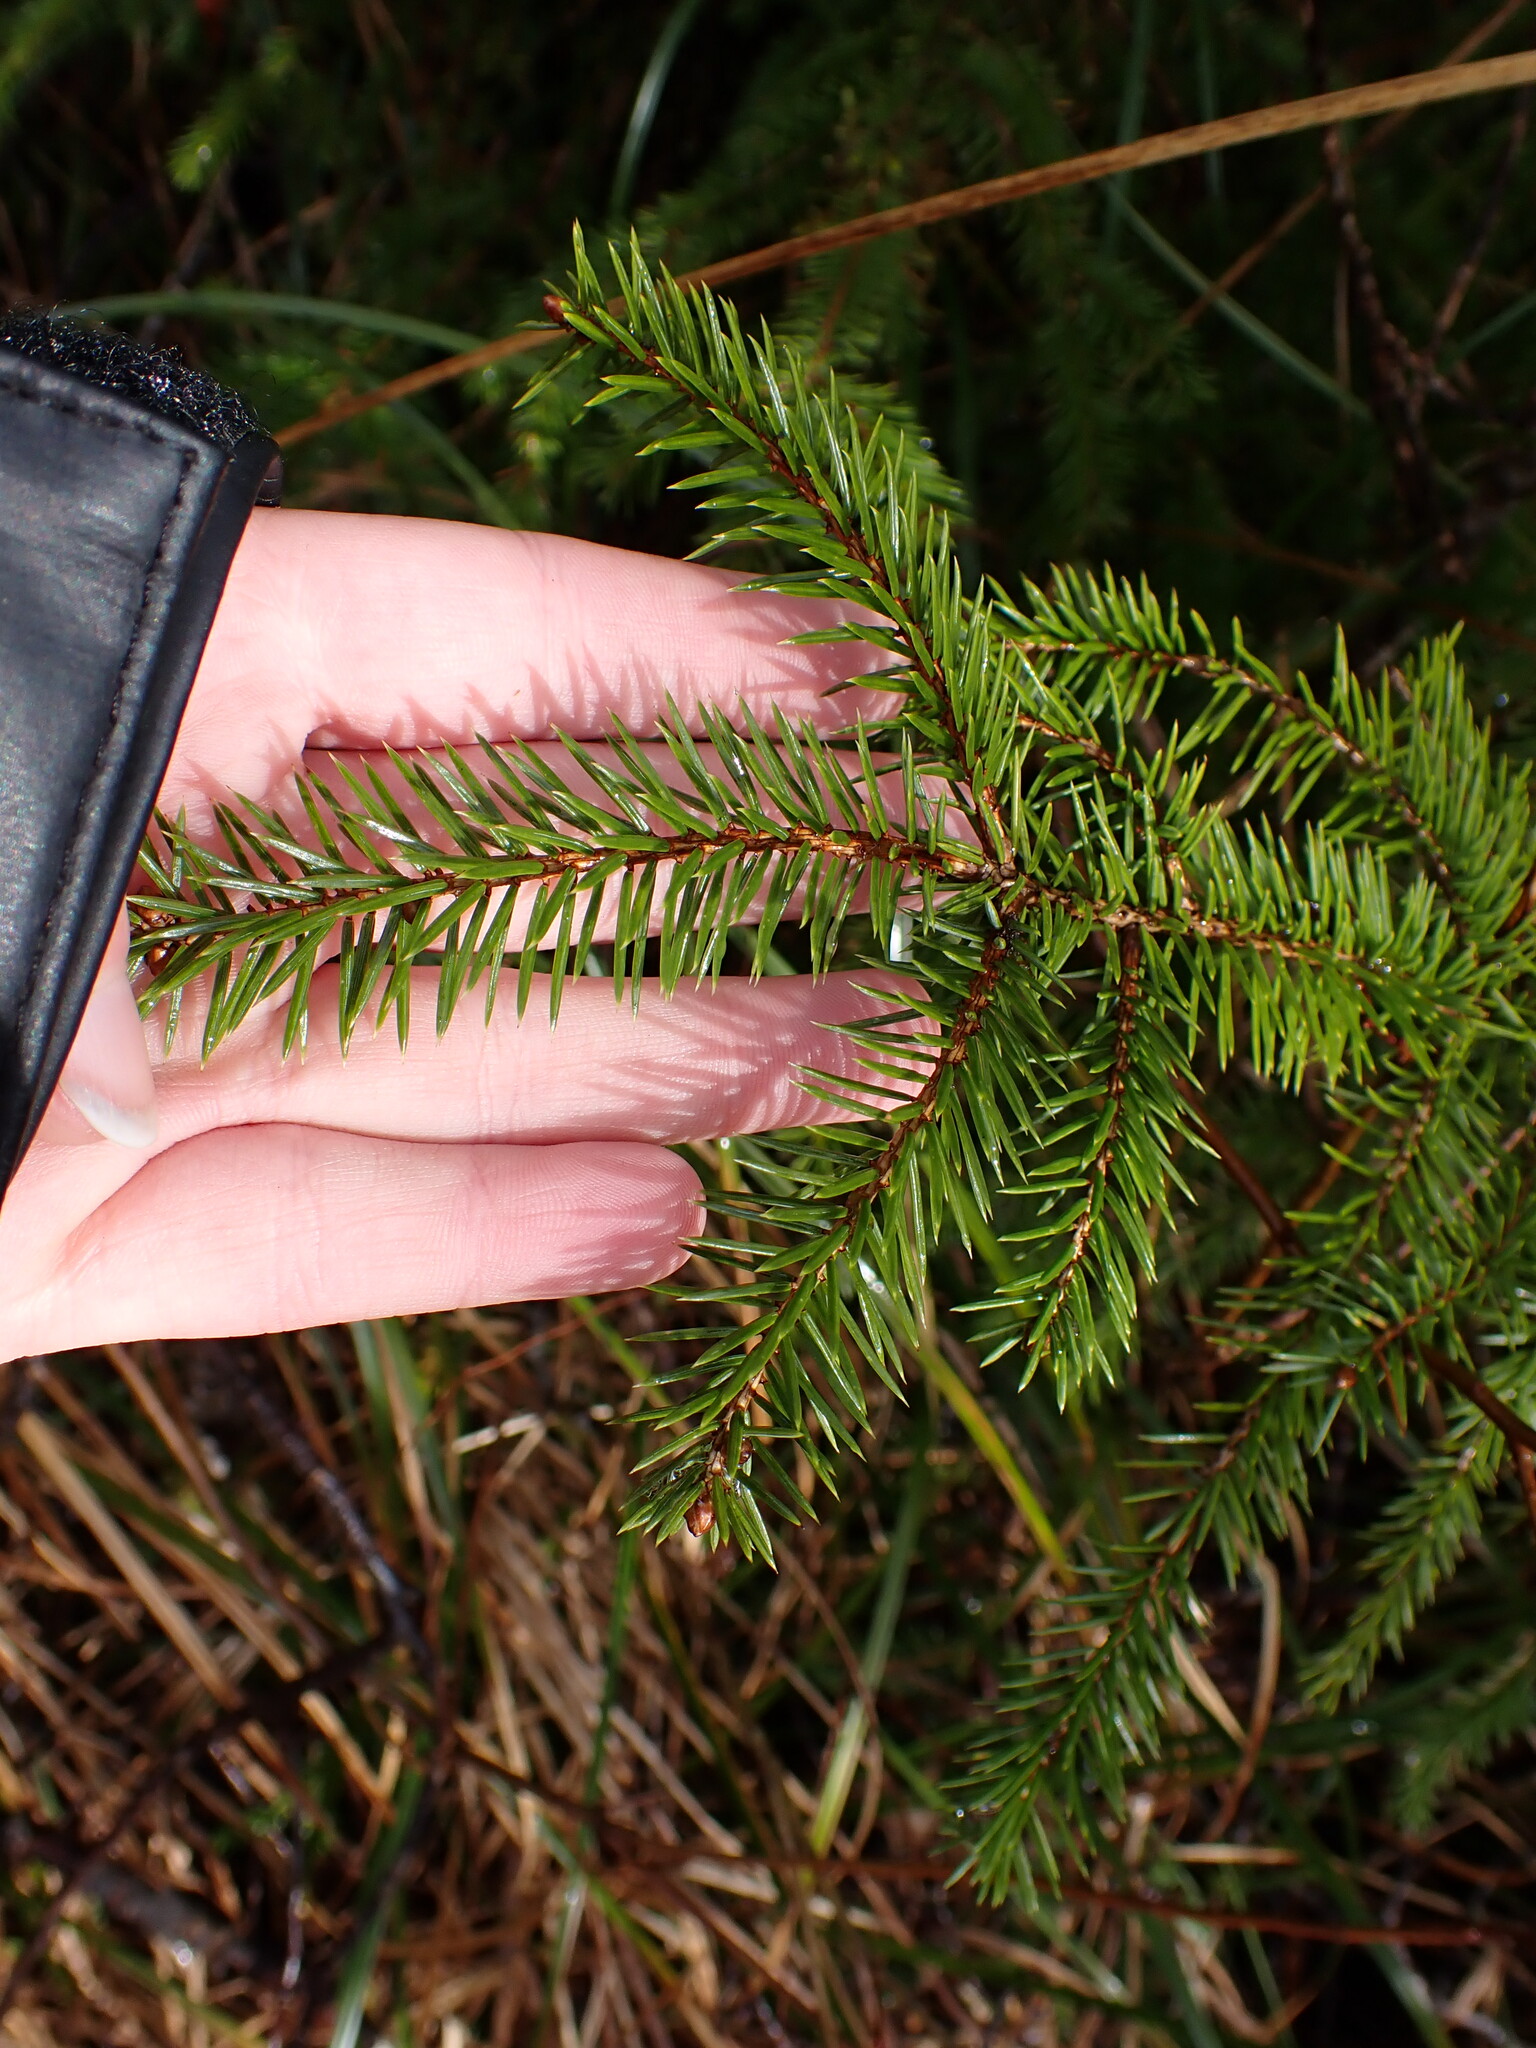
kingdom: Plantae
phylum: Tracheophyta
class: Pinopsida
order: Pinales
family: Pinaceae
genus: Picea
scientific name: Picea sitchensis
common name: Sitka spruce
